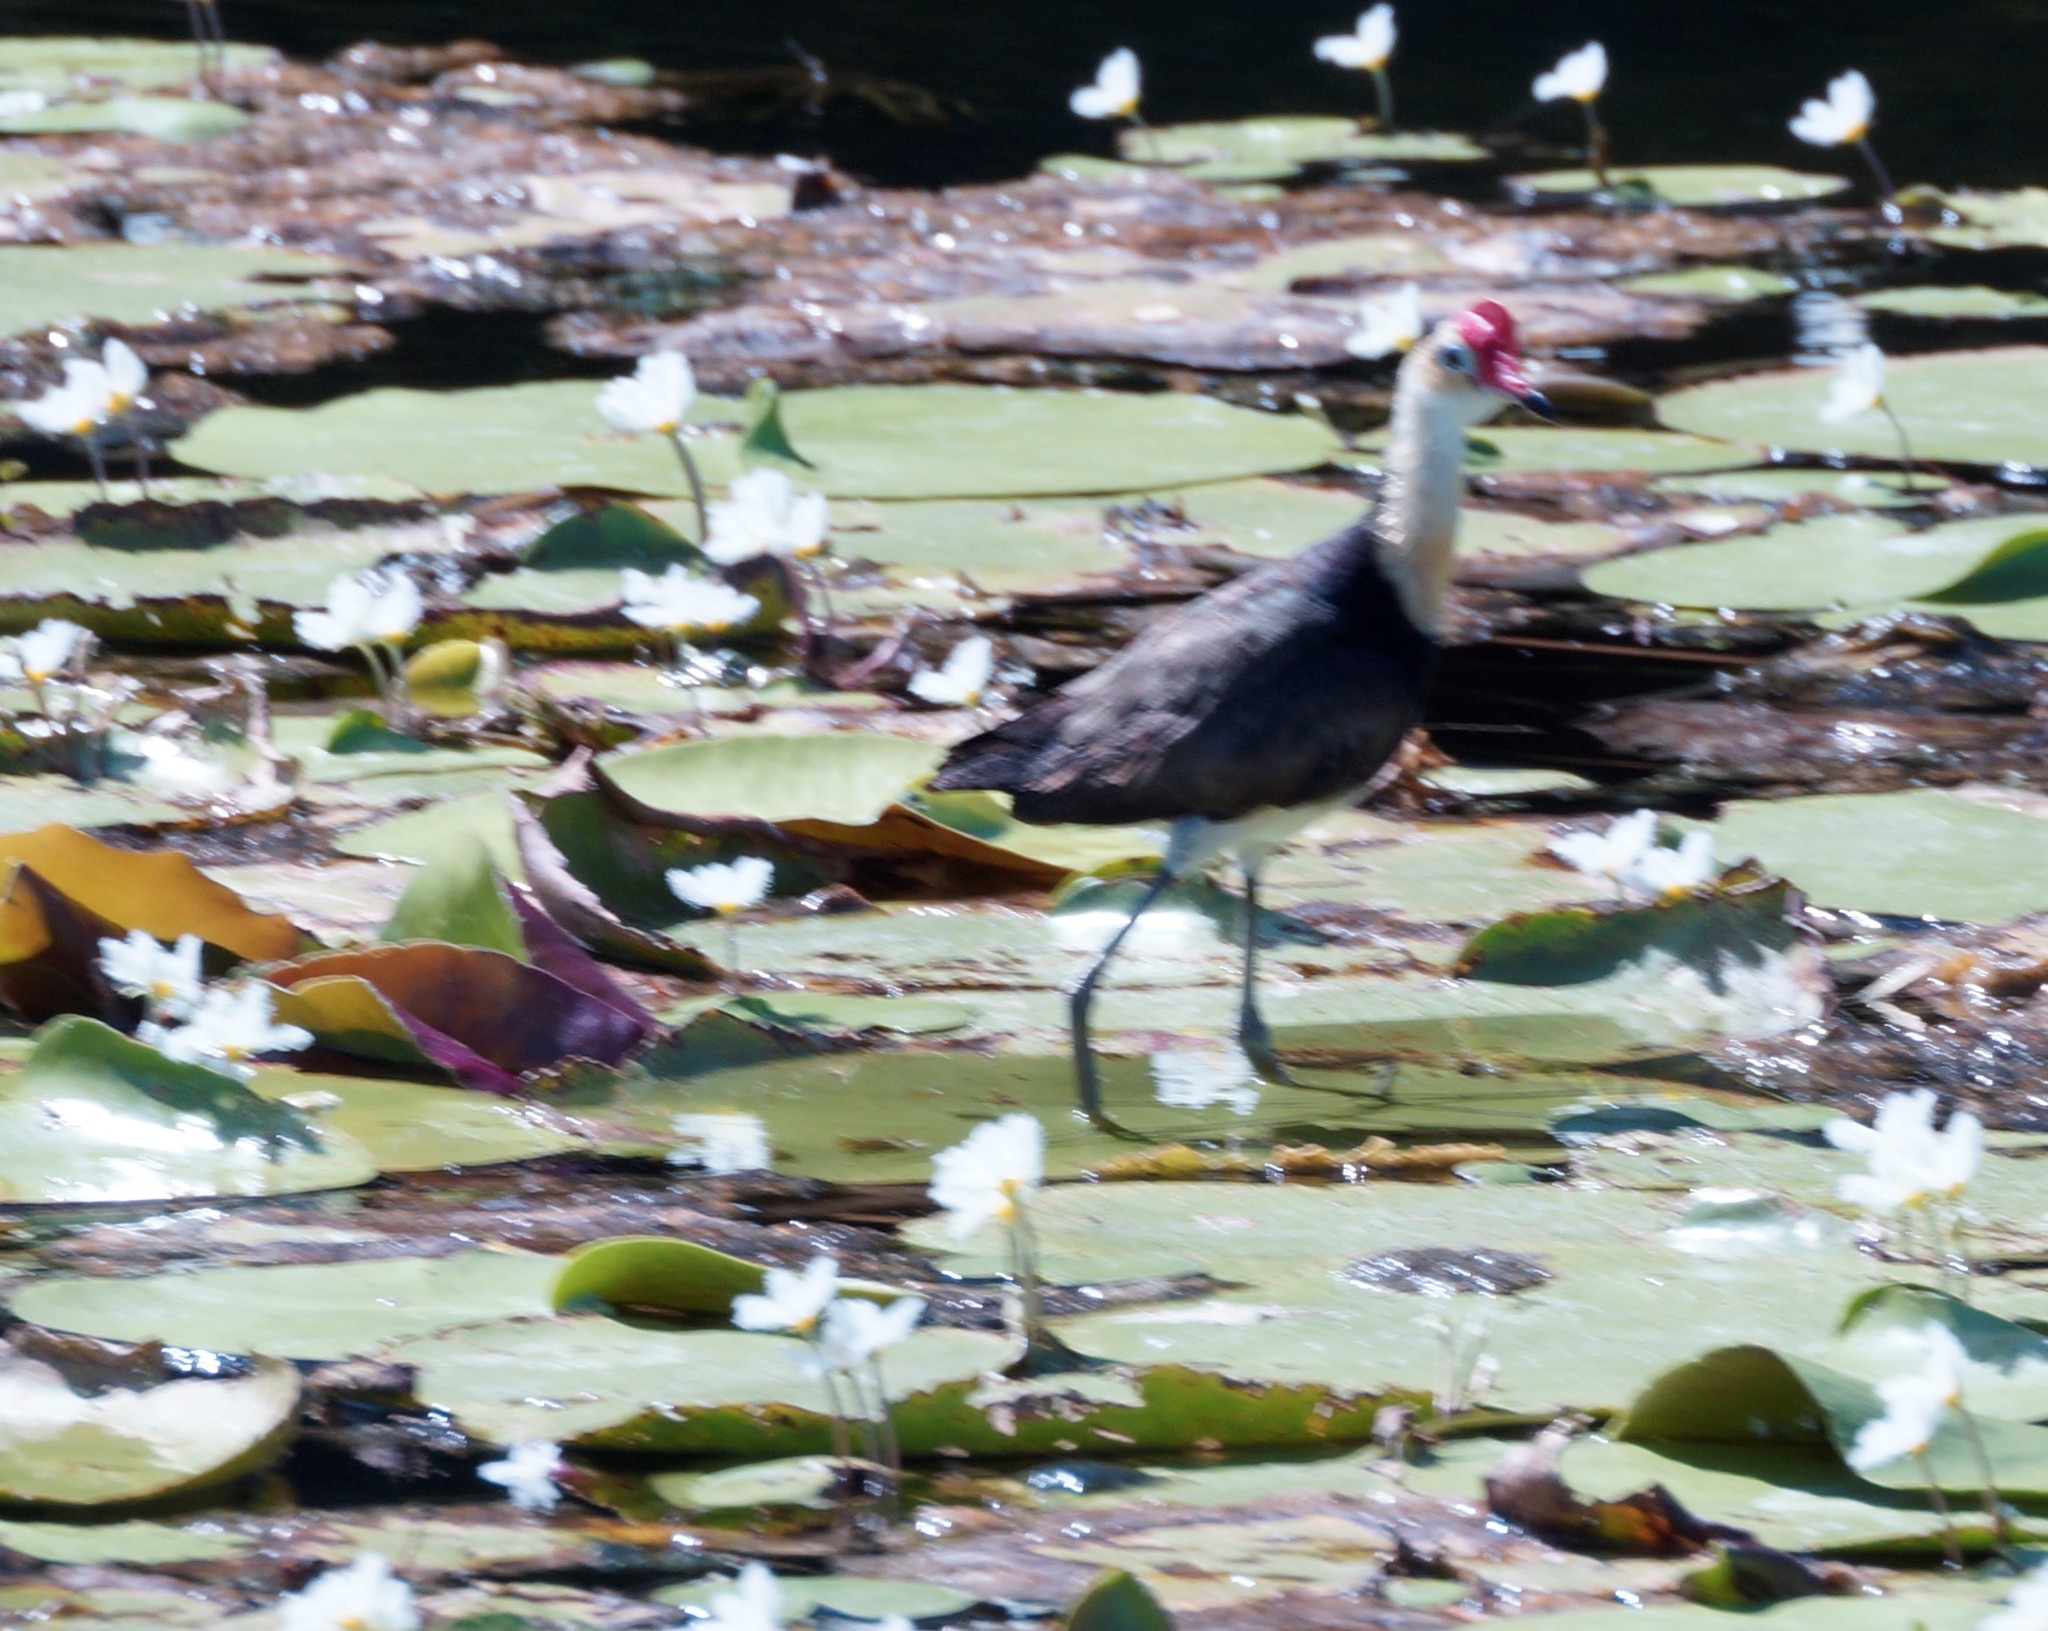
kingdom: Animalia
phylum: Chordata
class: Aves
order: Charadriiformes
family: Jacanidae
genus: Irediparra
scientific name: Irediparra gallinacea
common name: Comb-crested jacana
